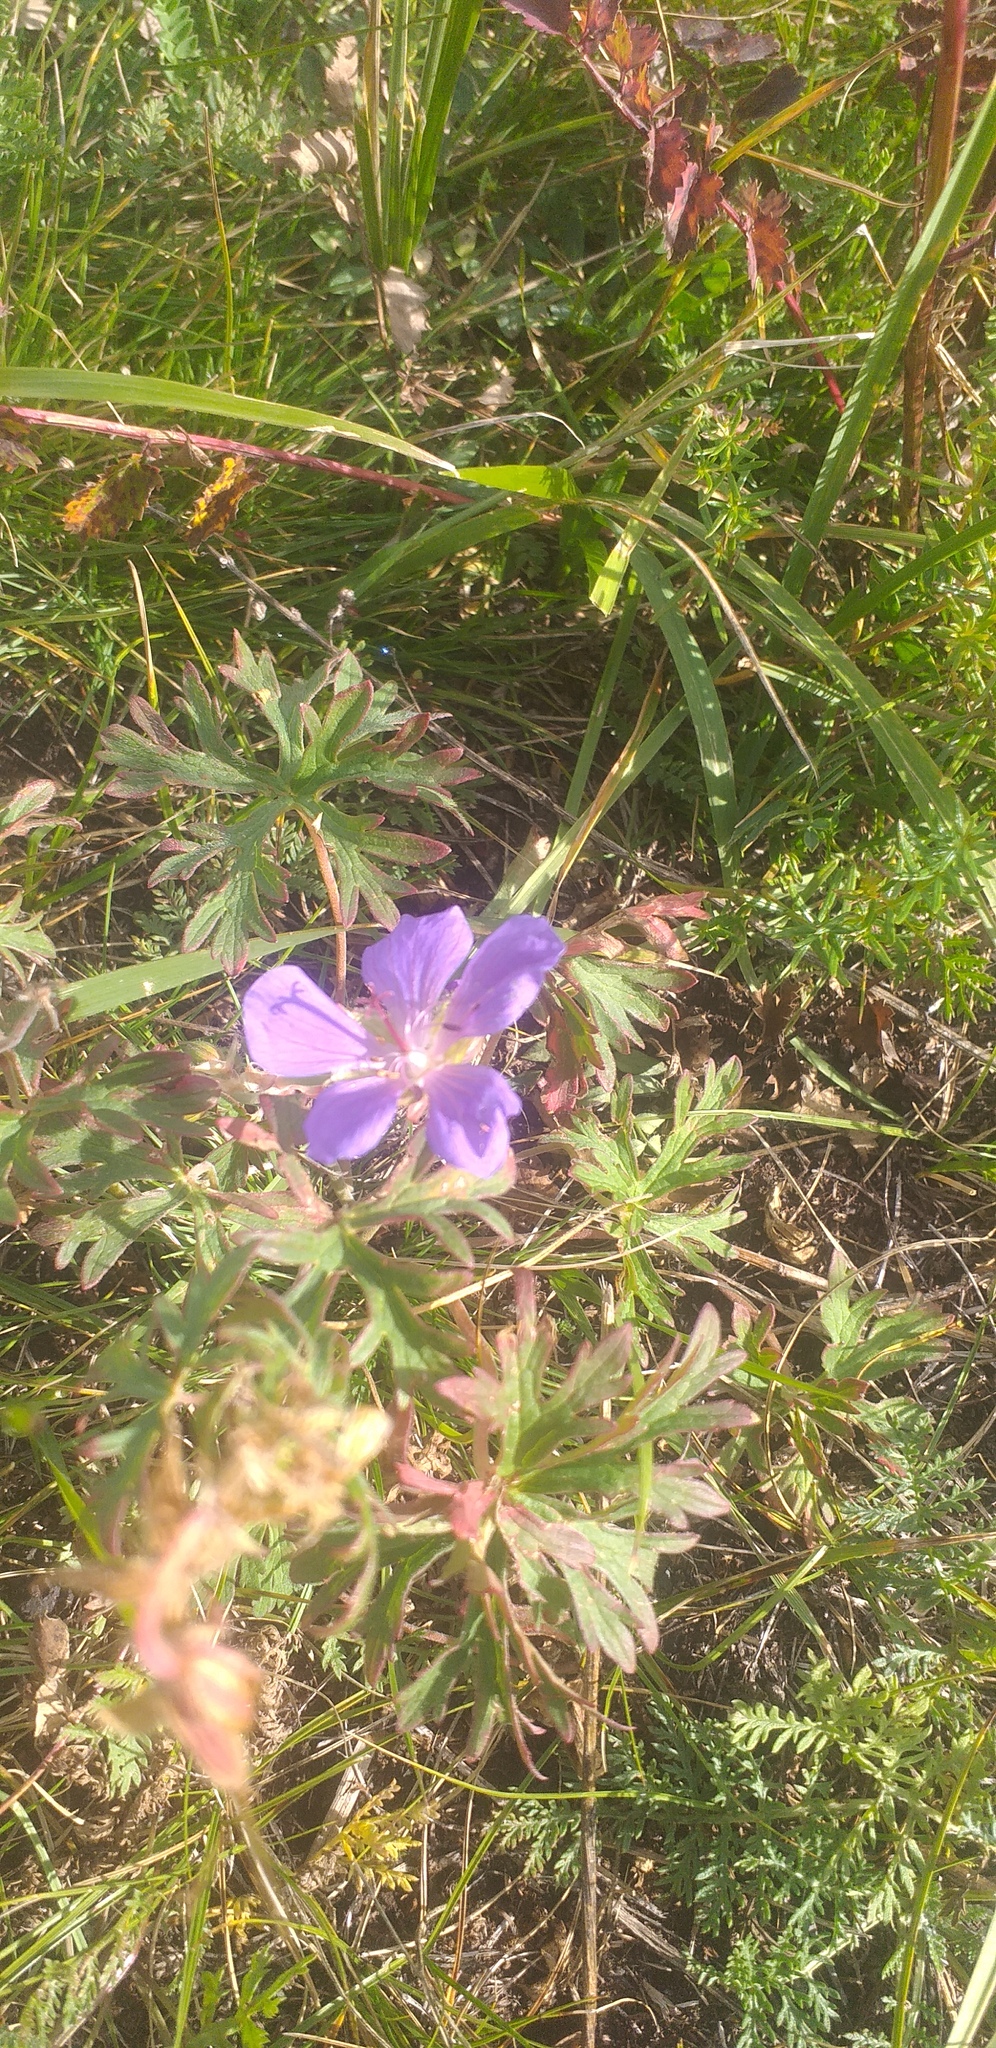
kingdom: Plantae
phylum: Tracheophyta
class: Magnoliopsida
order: Geraniales
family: Geraniaceae
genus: Geranium
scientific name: Geranium pratense
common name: Meadow crane's-bill
